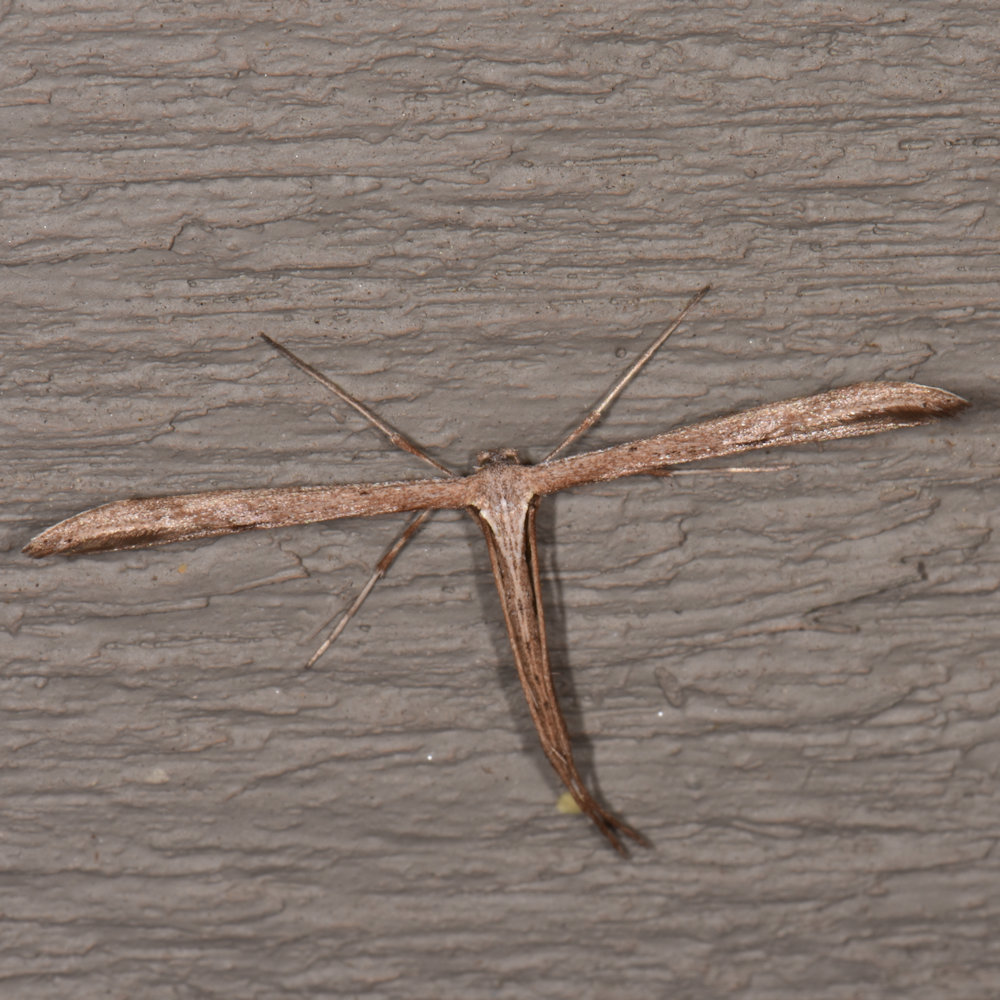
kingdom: Animalia
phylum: Arthropoda
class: Insecta
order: Lepidoptera
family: Pterophoridae
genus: Emmelina
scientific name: Emmelina monodactyla
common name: Common plume
